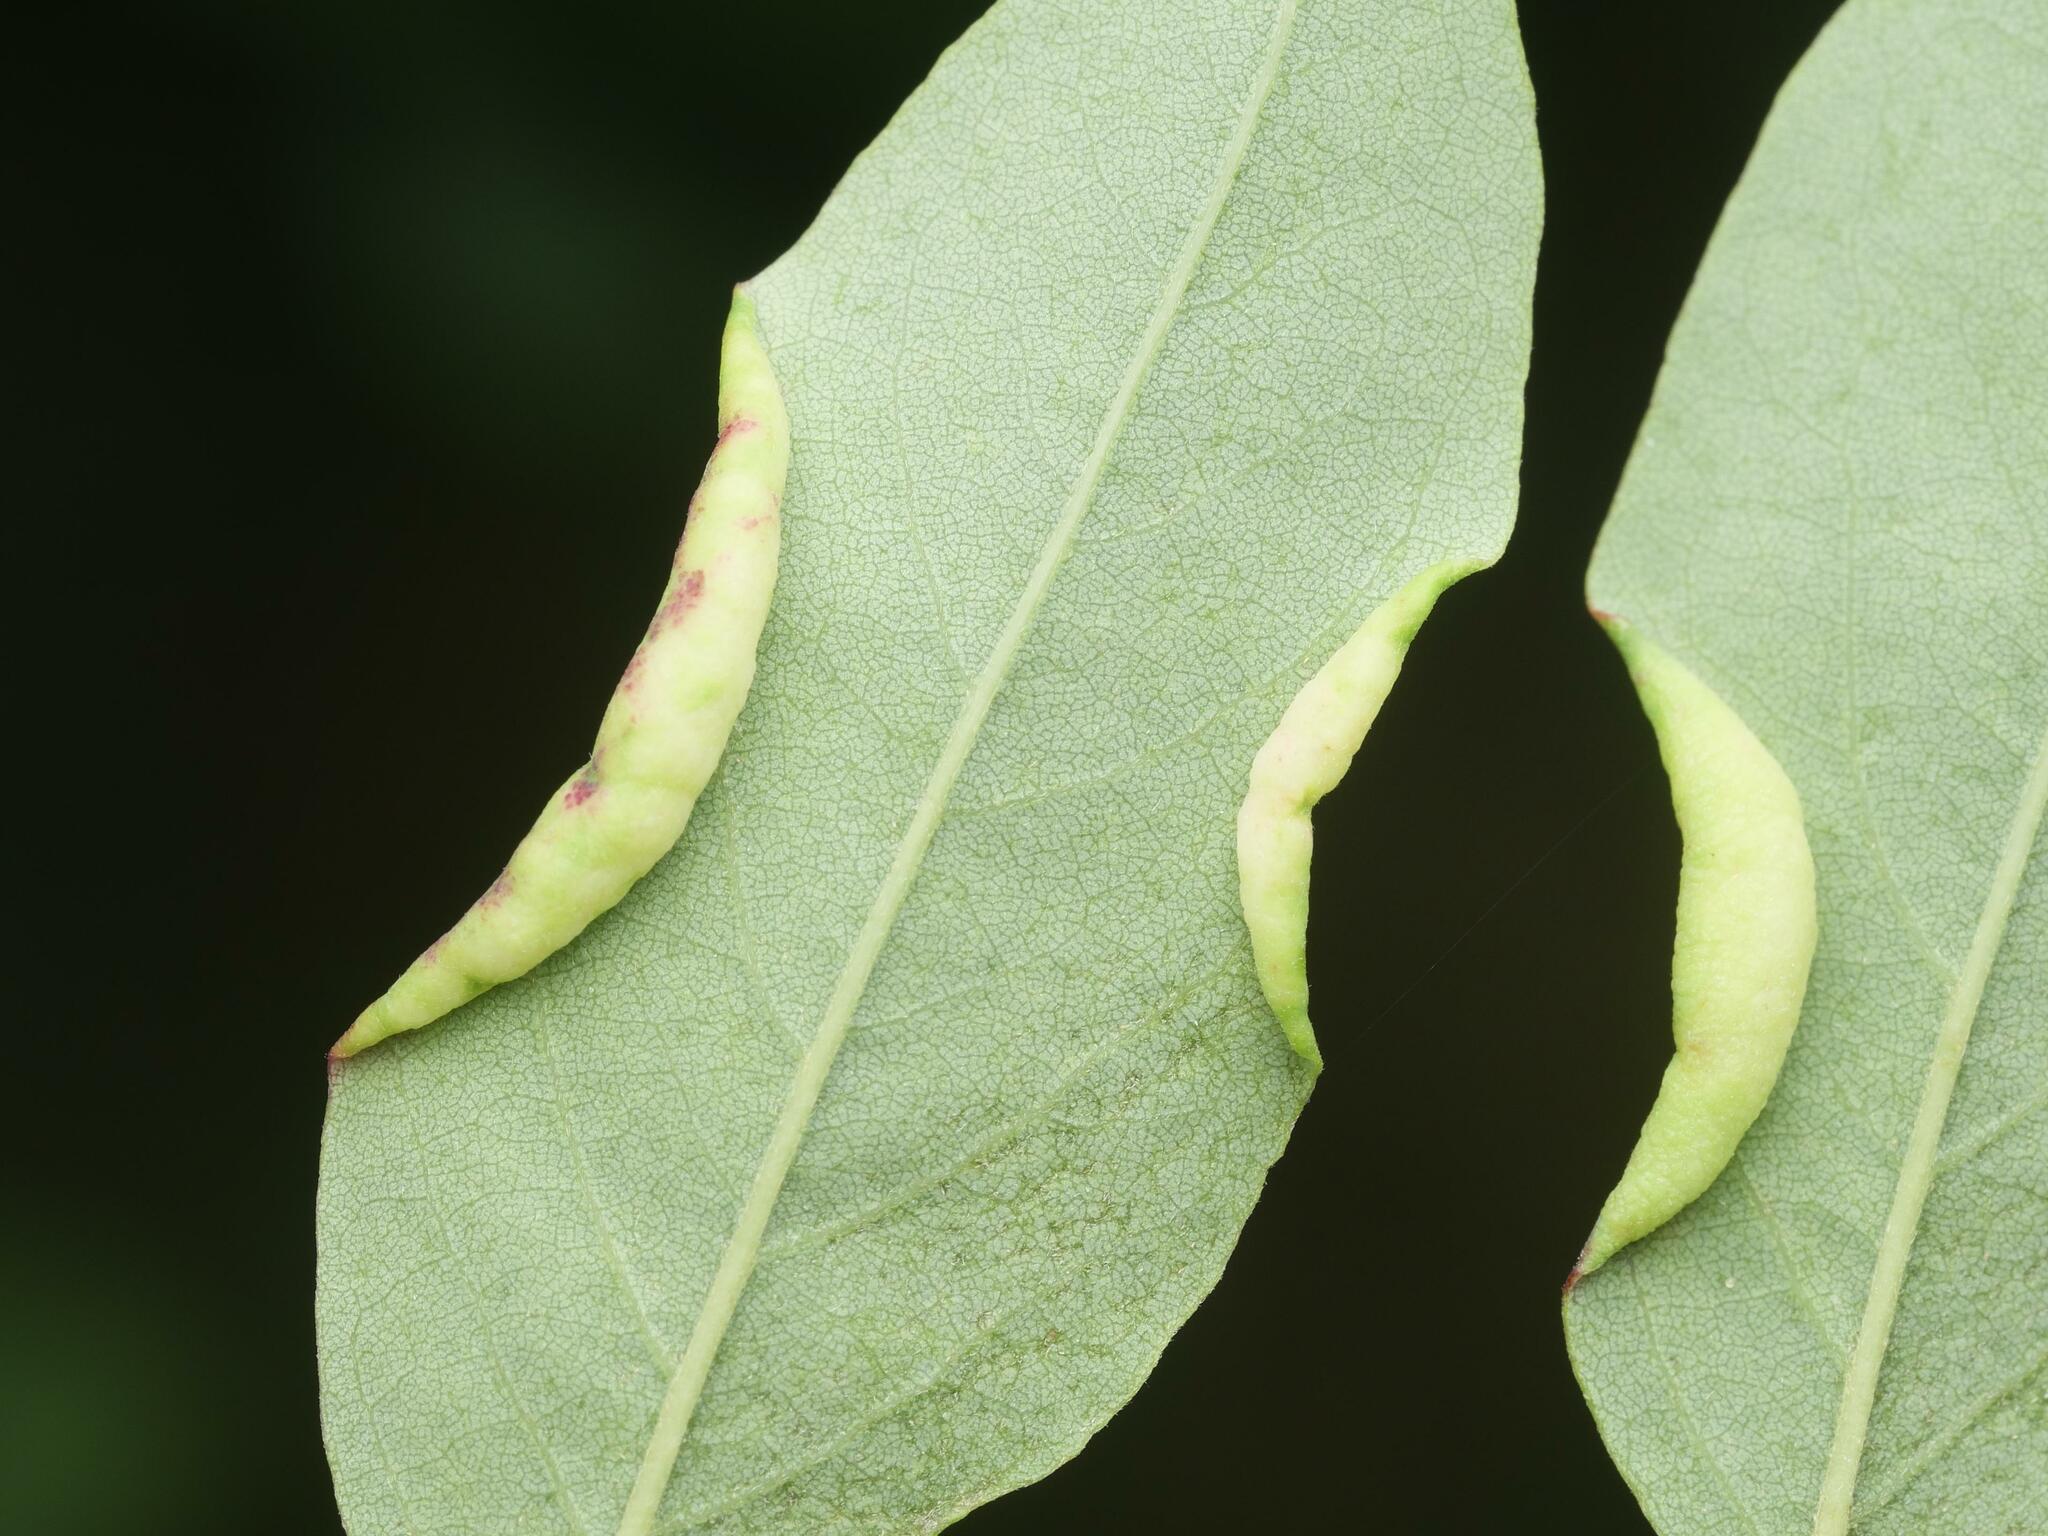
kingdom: Animalia
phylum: Arthropoda
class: Insecta
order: Diptera
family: Cecidomyiidae
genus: Obolodiplosis
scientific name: Obolodiplosis robiniae
